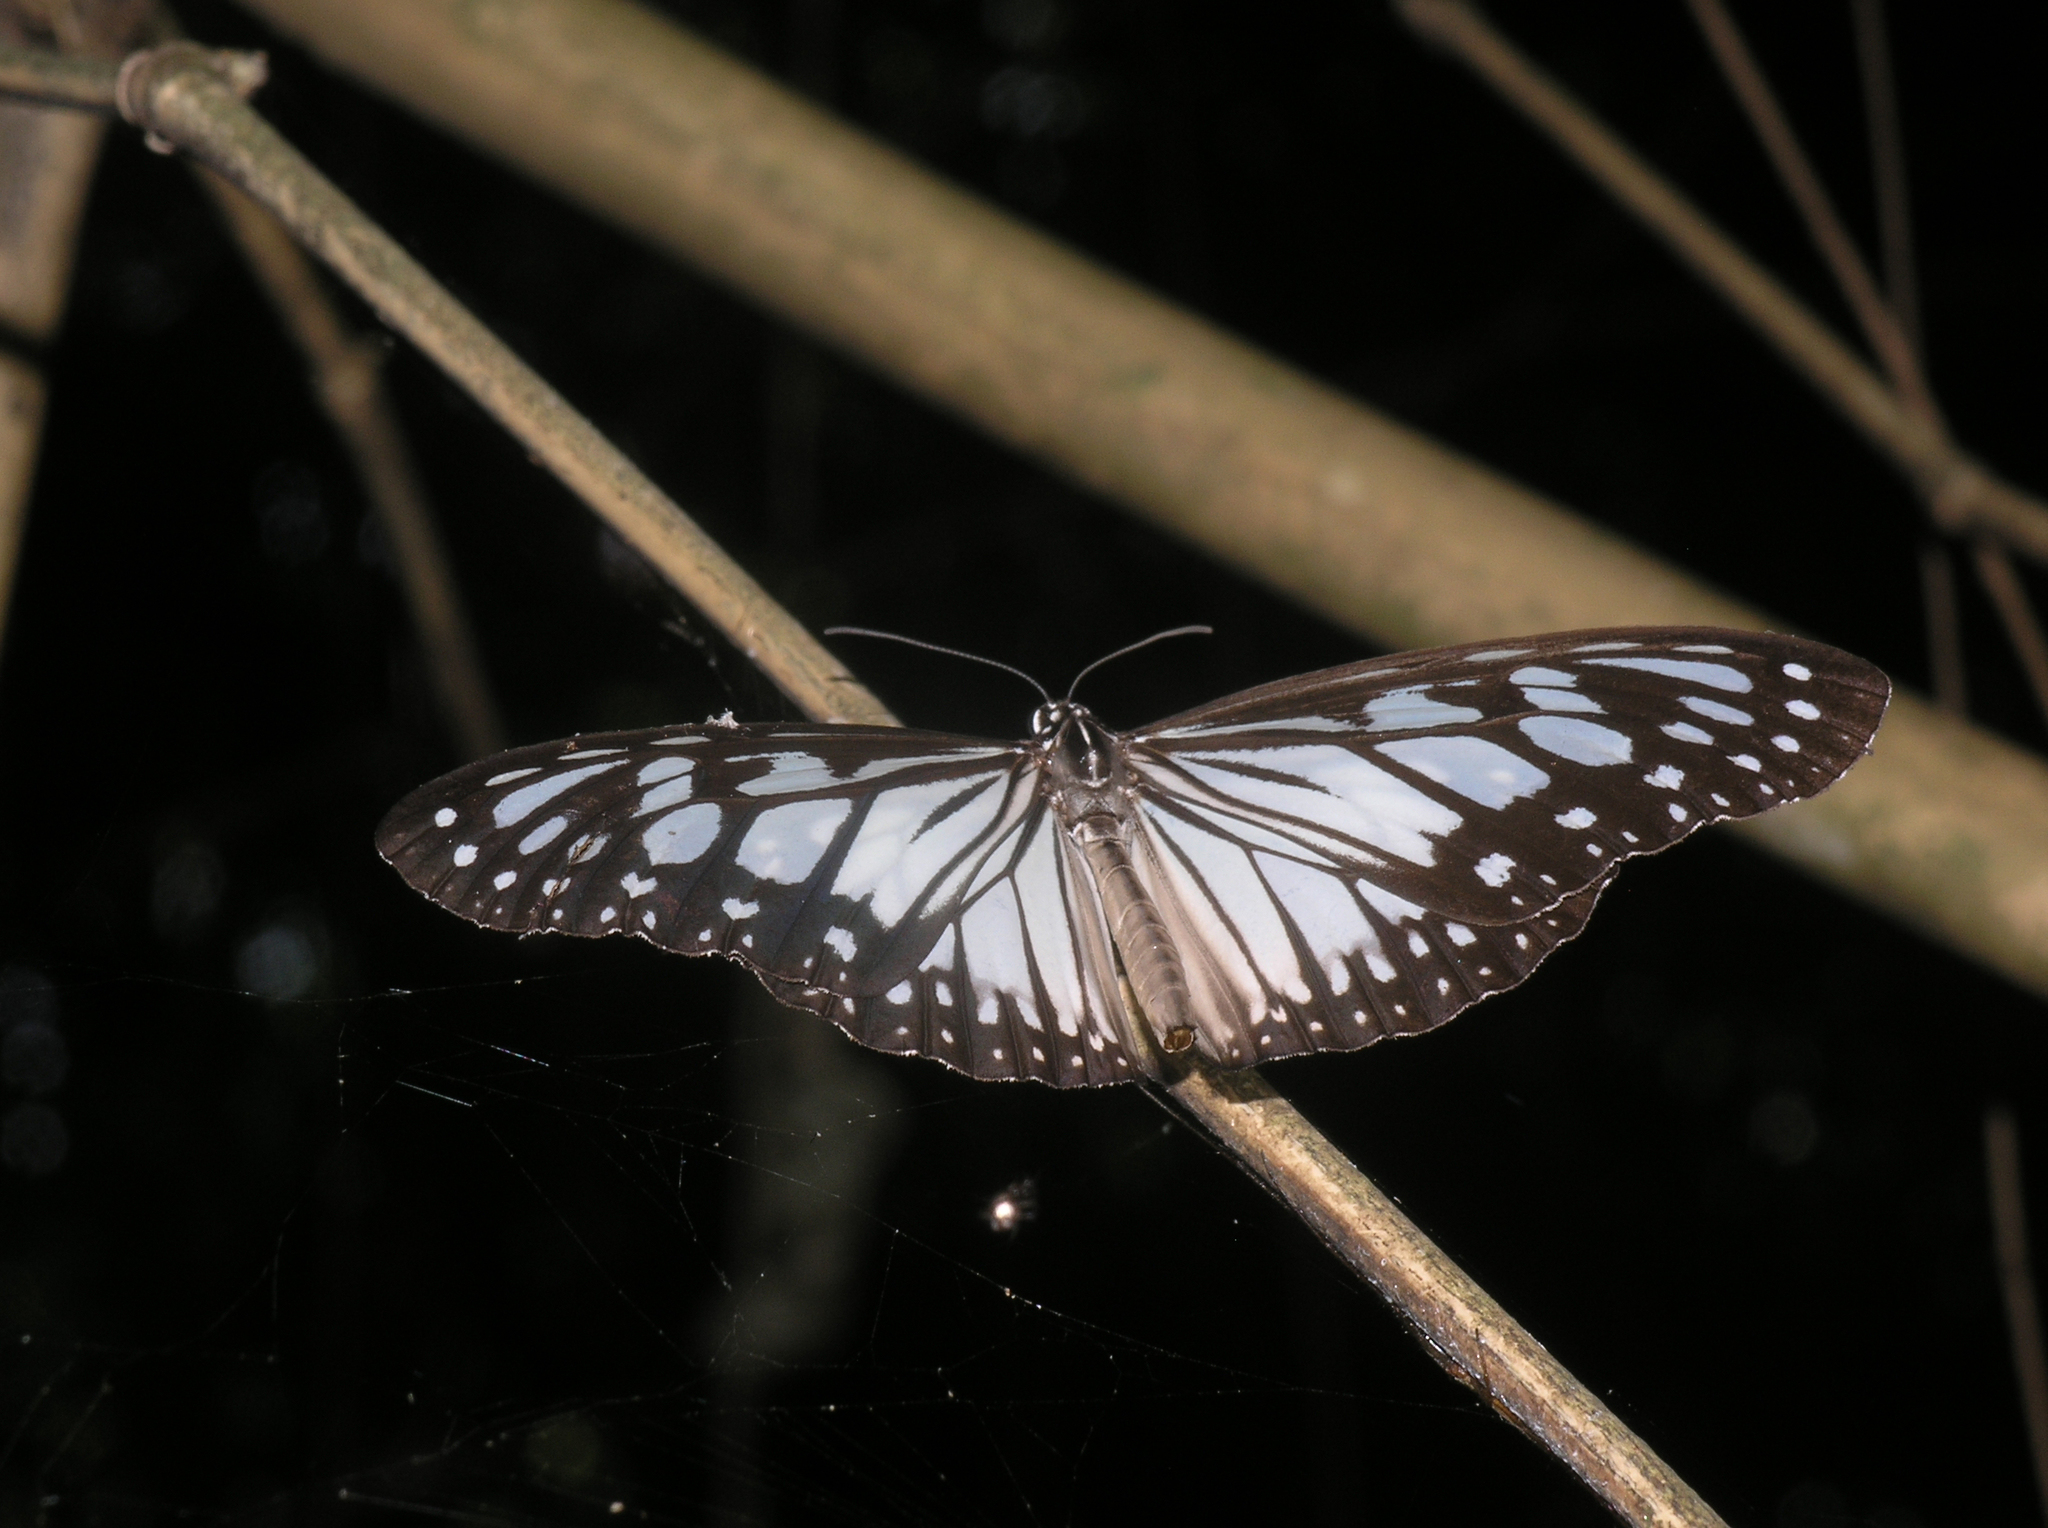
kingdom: Animalia
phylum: Arthropoda
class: Insecta
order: Lepidoptera
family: Nymphalidae
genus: Ideopsis
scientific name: Ideopsis juventa
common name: Grey glassy tiger
